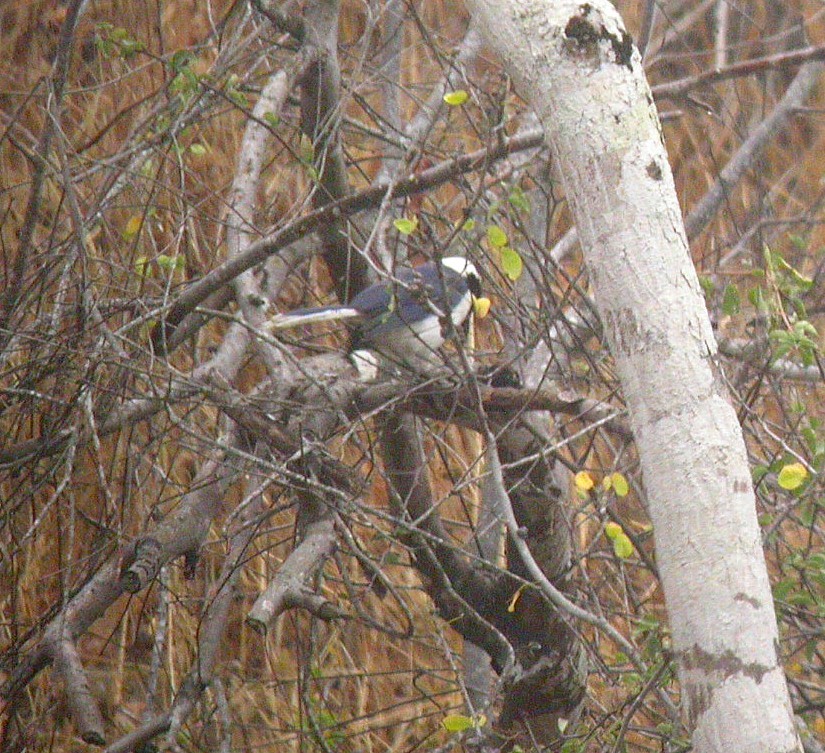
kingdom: Animalia
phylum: Chordata
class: Aves
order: Passeriformes
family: Corvidae
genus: Cyanocorax
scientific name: Cyanocorax mystacalis
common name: White-tailed jay
